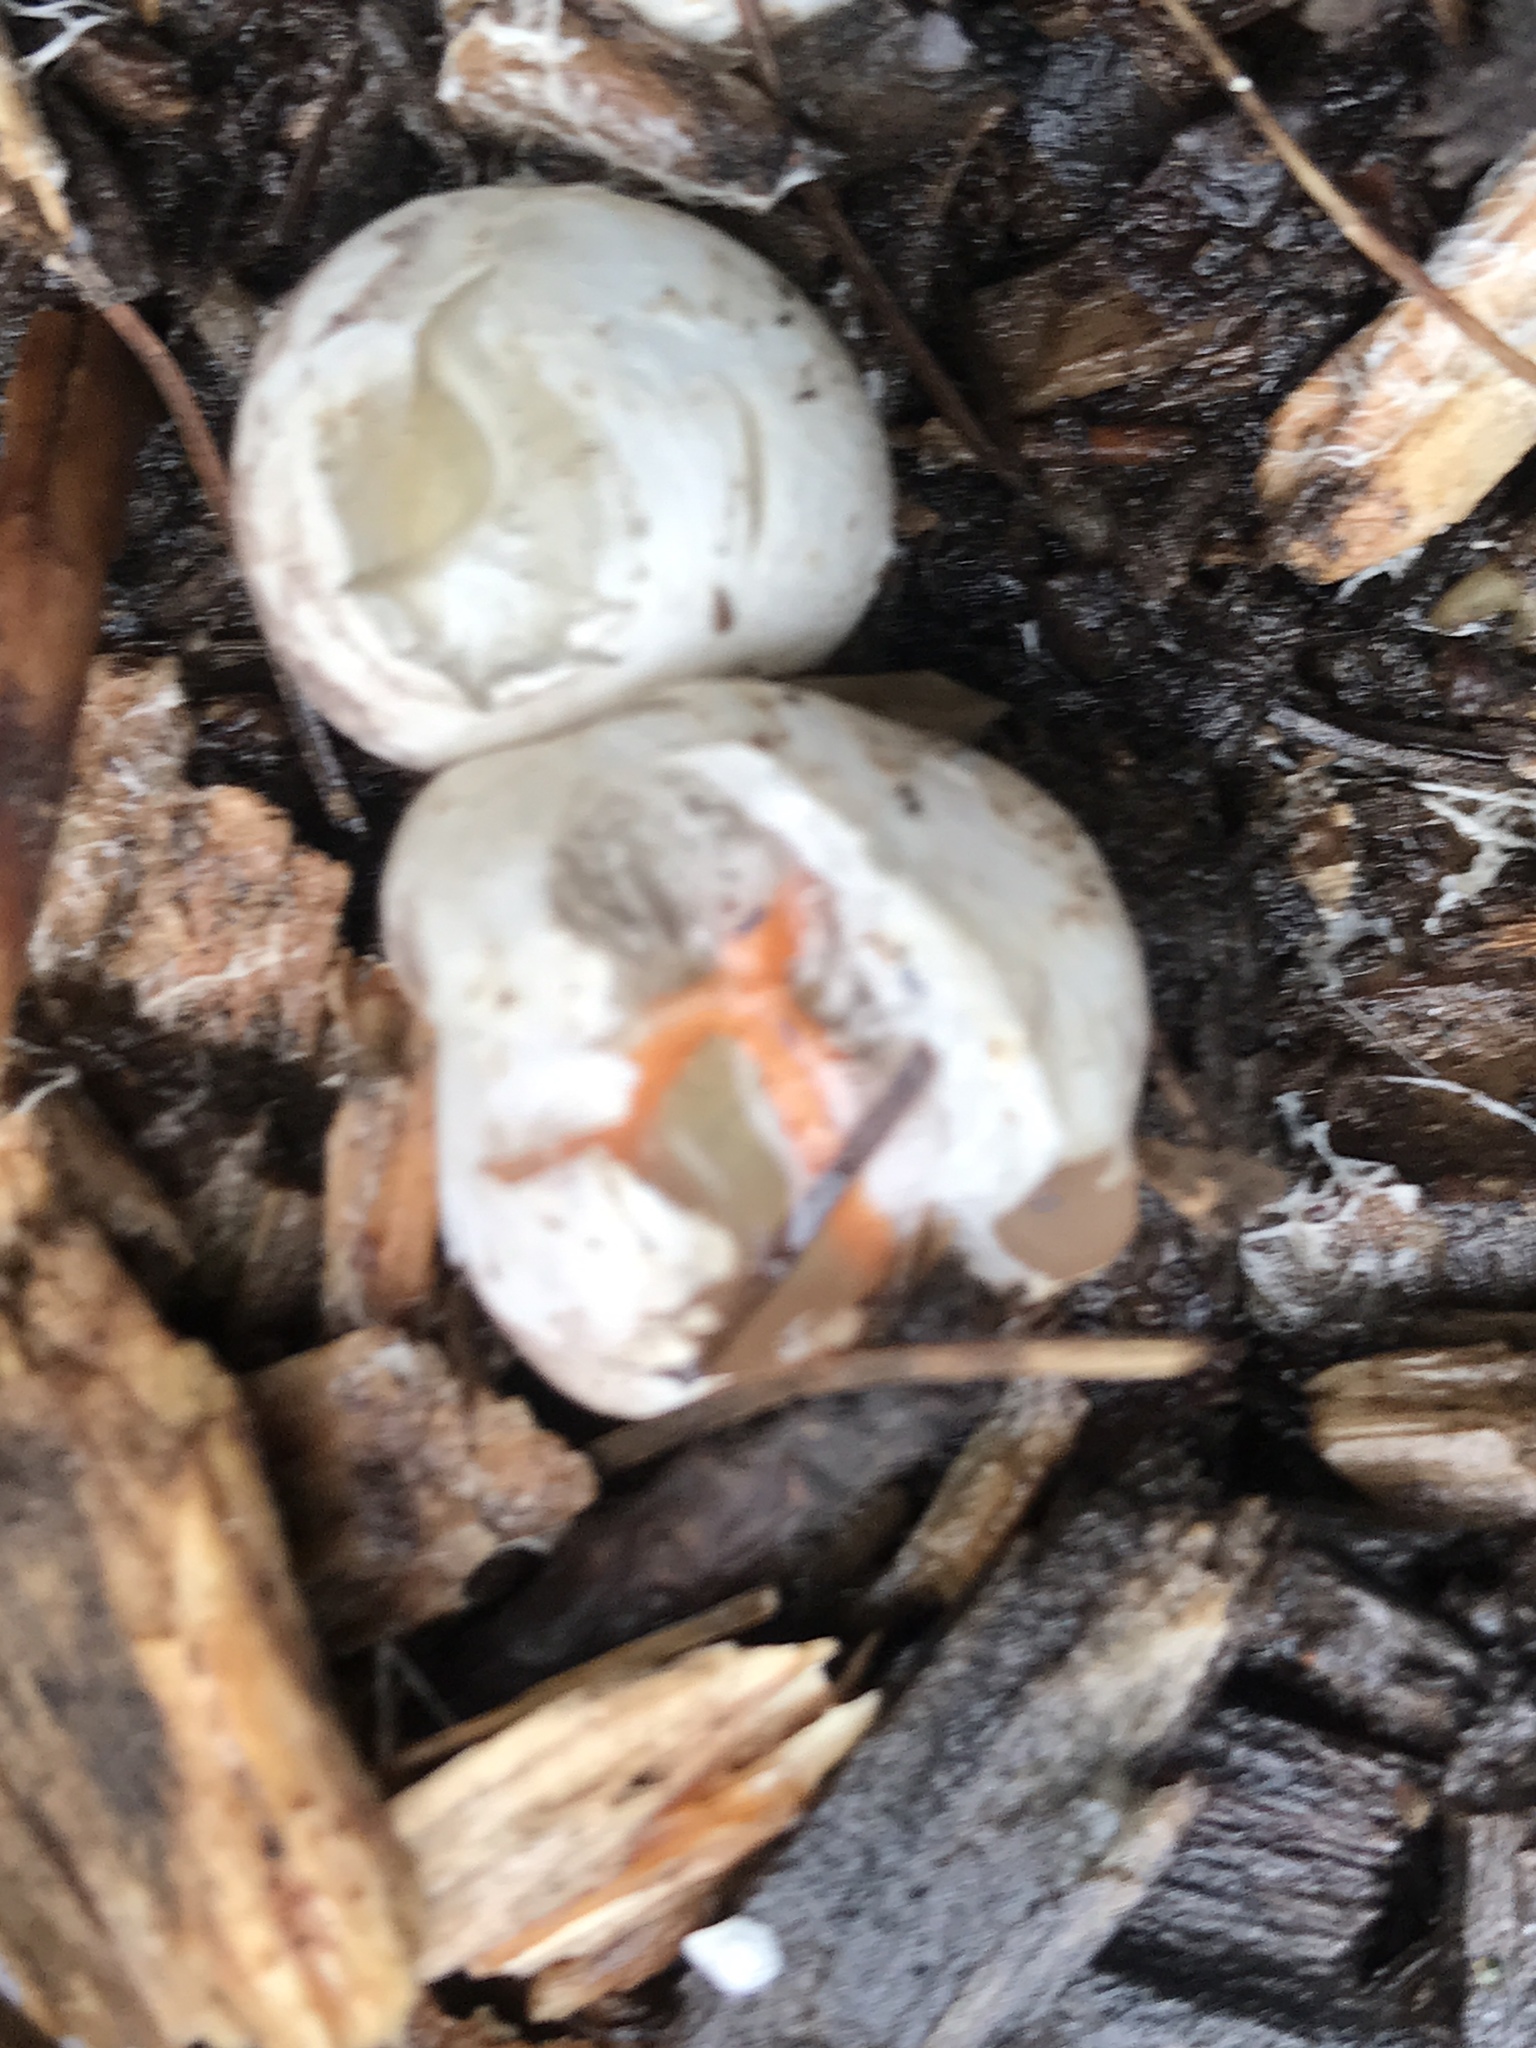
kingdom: Fungi
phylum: Basidiomycota
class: Agaricomycetes
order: Phallales
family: Phallaceae
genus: Pseudocolus
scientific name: Pseudocolus fusiformis
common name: Stinky squid
